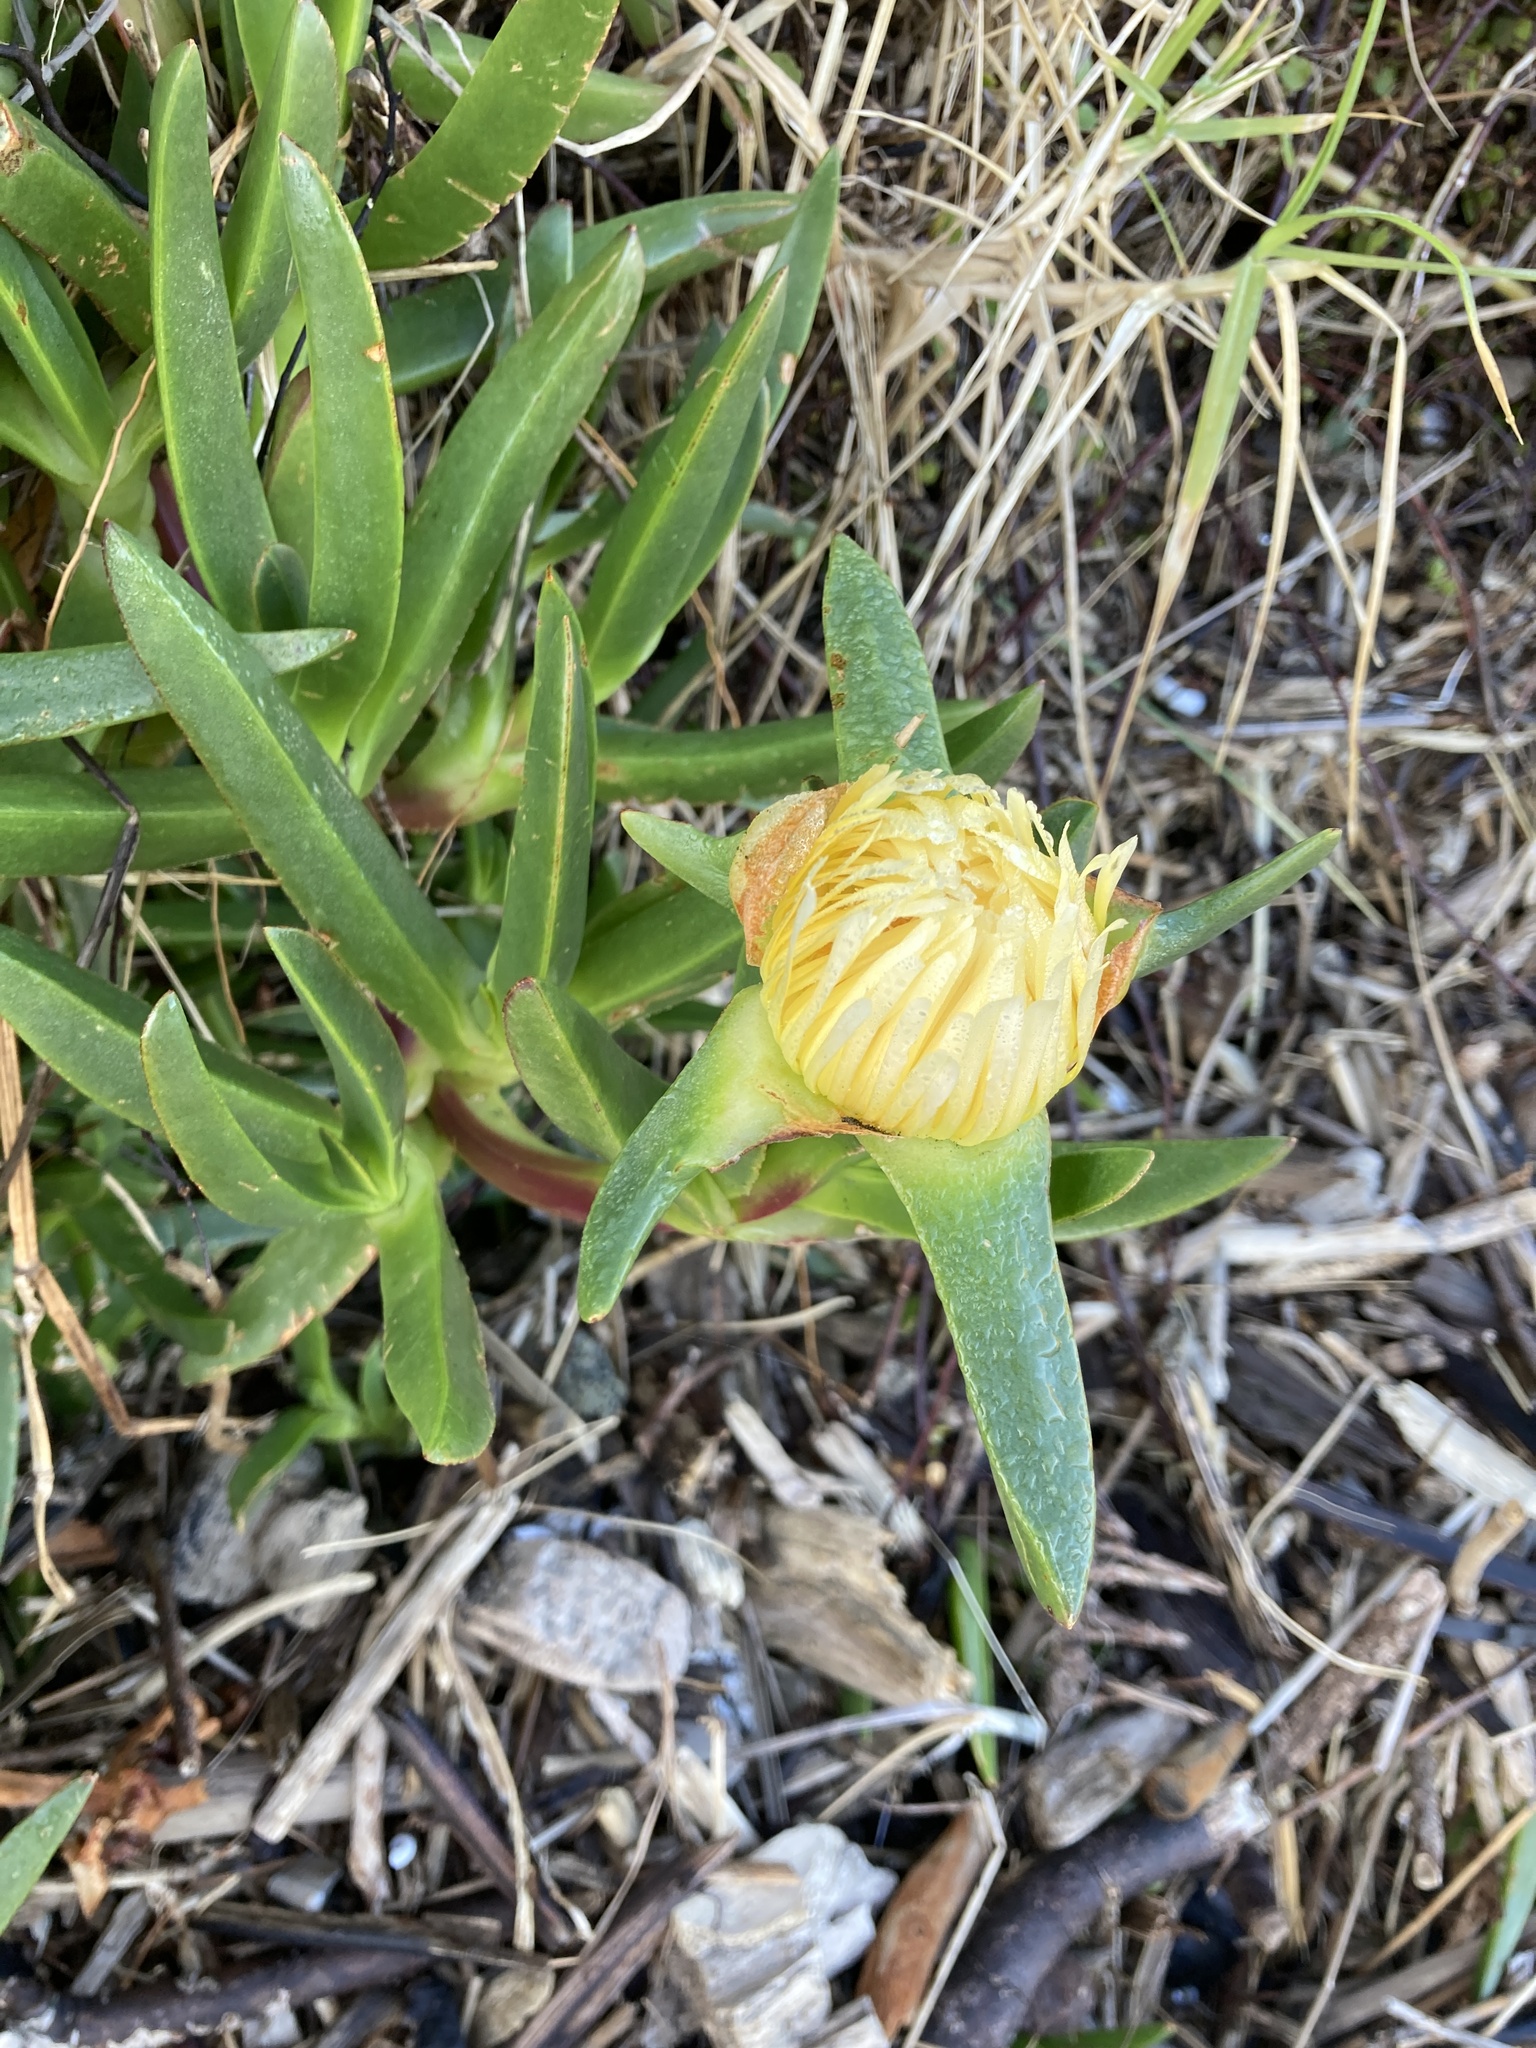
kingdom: Plantae
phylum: Tracheophyta
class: Magnoliopsida
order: Caryophyllales
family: Aizoaceae
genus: Carpobrotus
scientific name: Carpobrotus edulis
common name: Hottentot-fig
